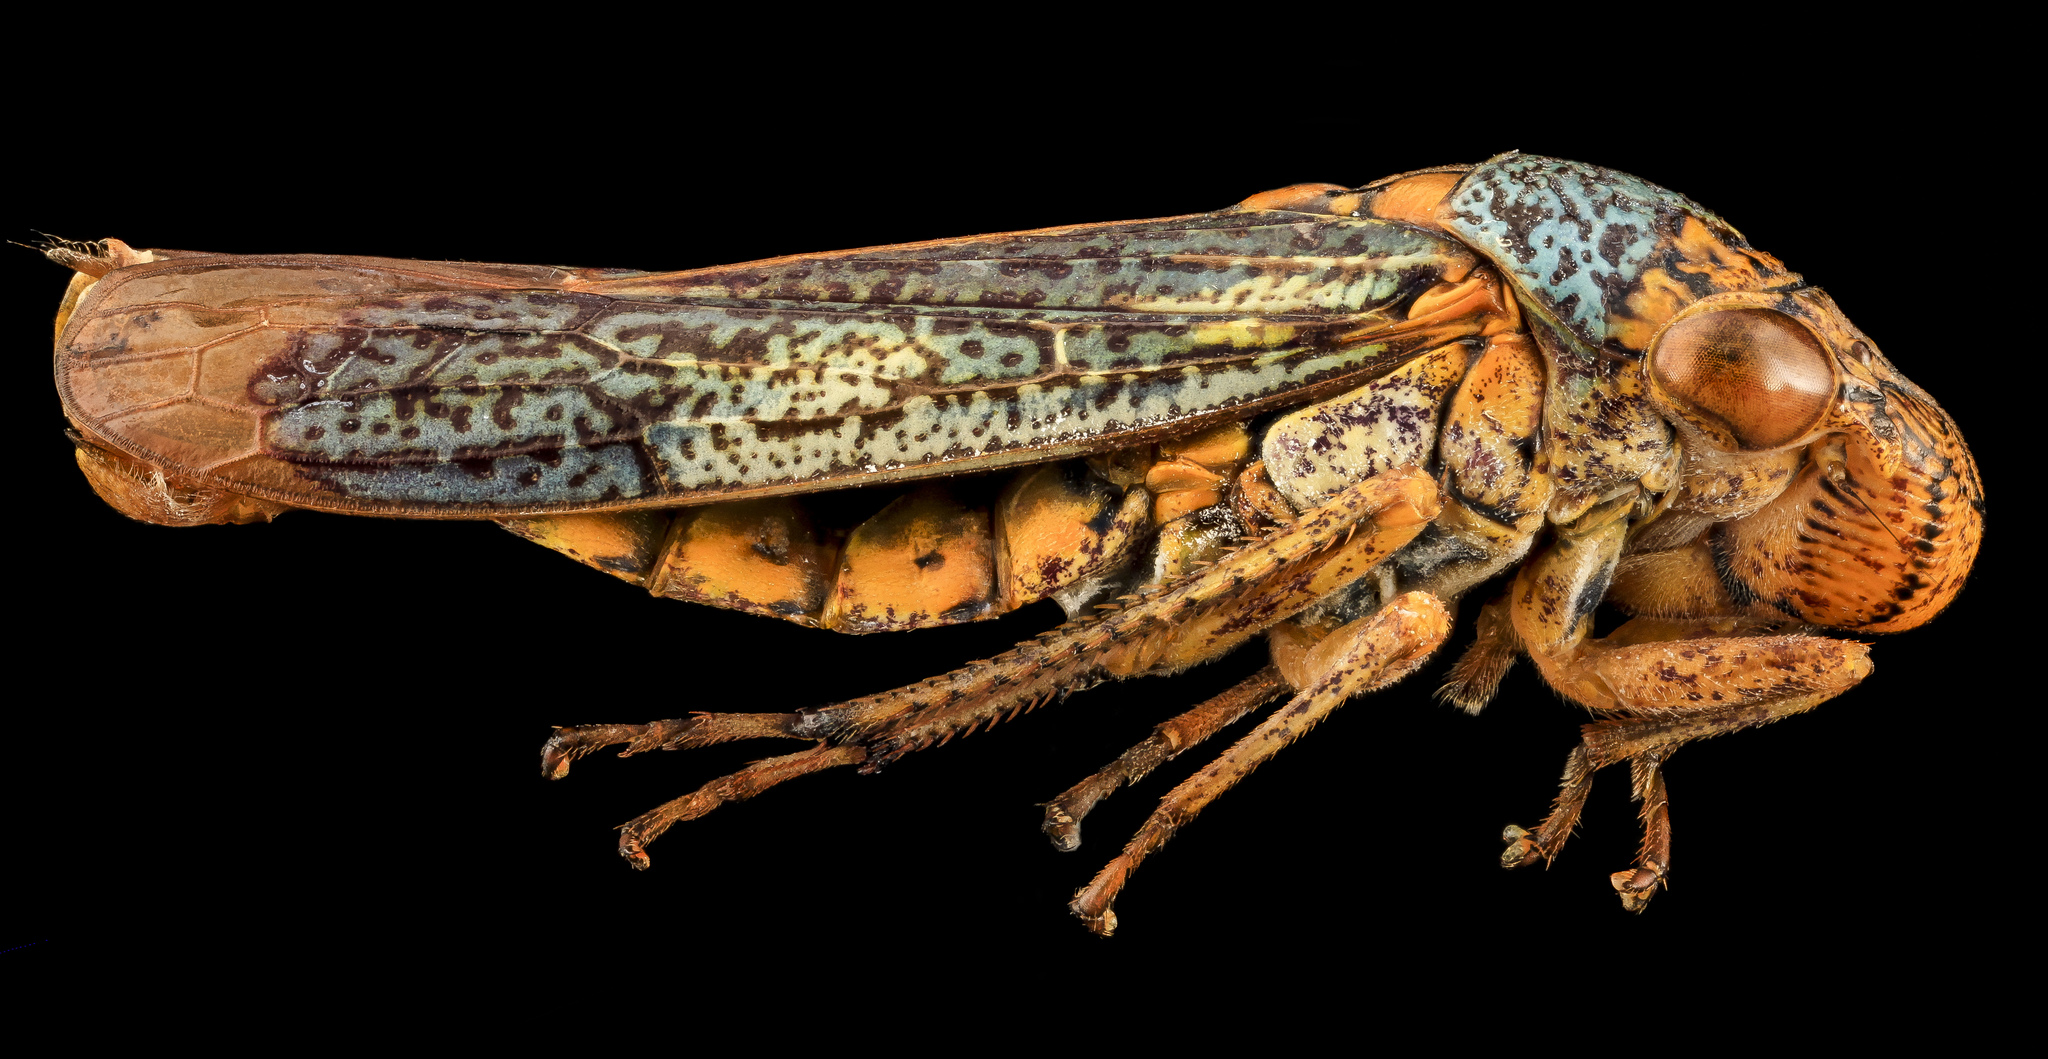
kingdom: Animalia
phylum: Arthropoda
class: Insecta
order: Hemiptera
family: Cicadellidae
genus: Oncometopia
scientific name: Oncometopia orbona
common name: Broad-headed sharpshooter
